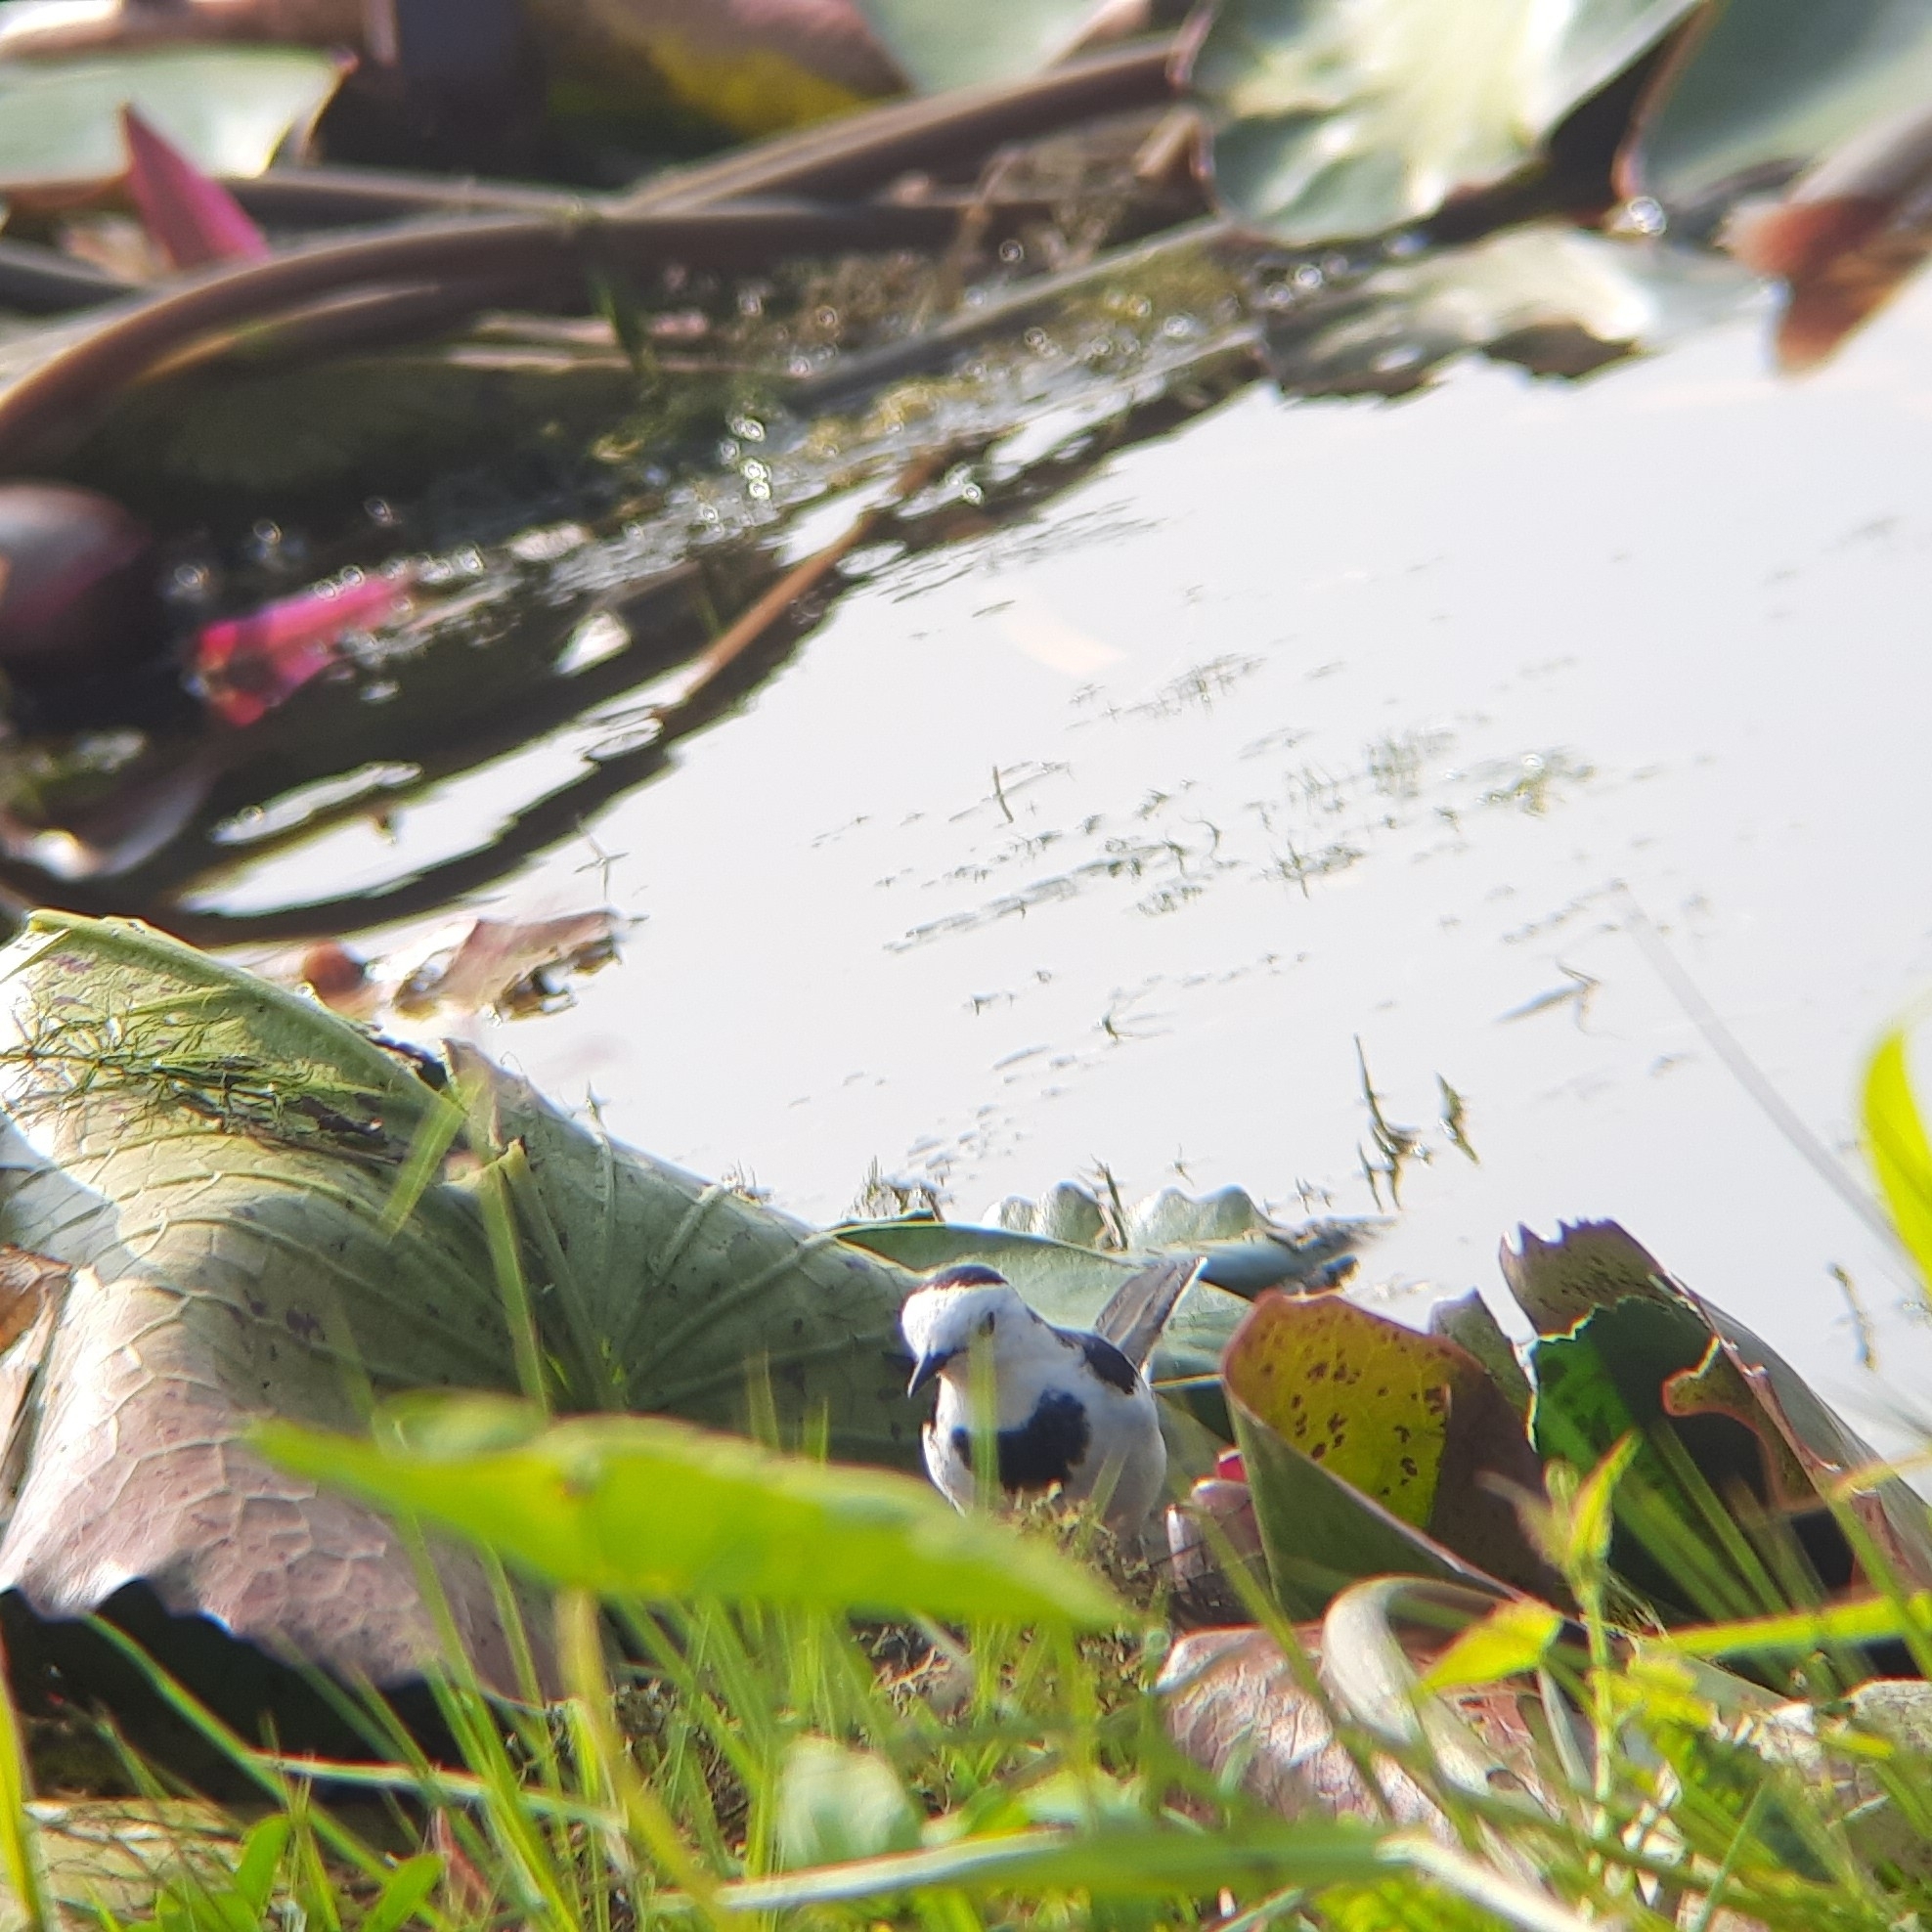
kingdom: Animalia
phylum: Chordata
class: Aves
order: Passeriformes
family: Motacillidae
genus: Motacilla
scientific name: Motacilla alba
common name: White wagtail
